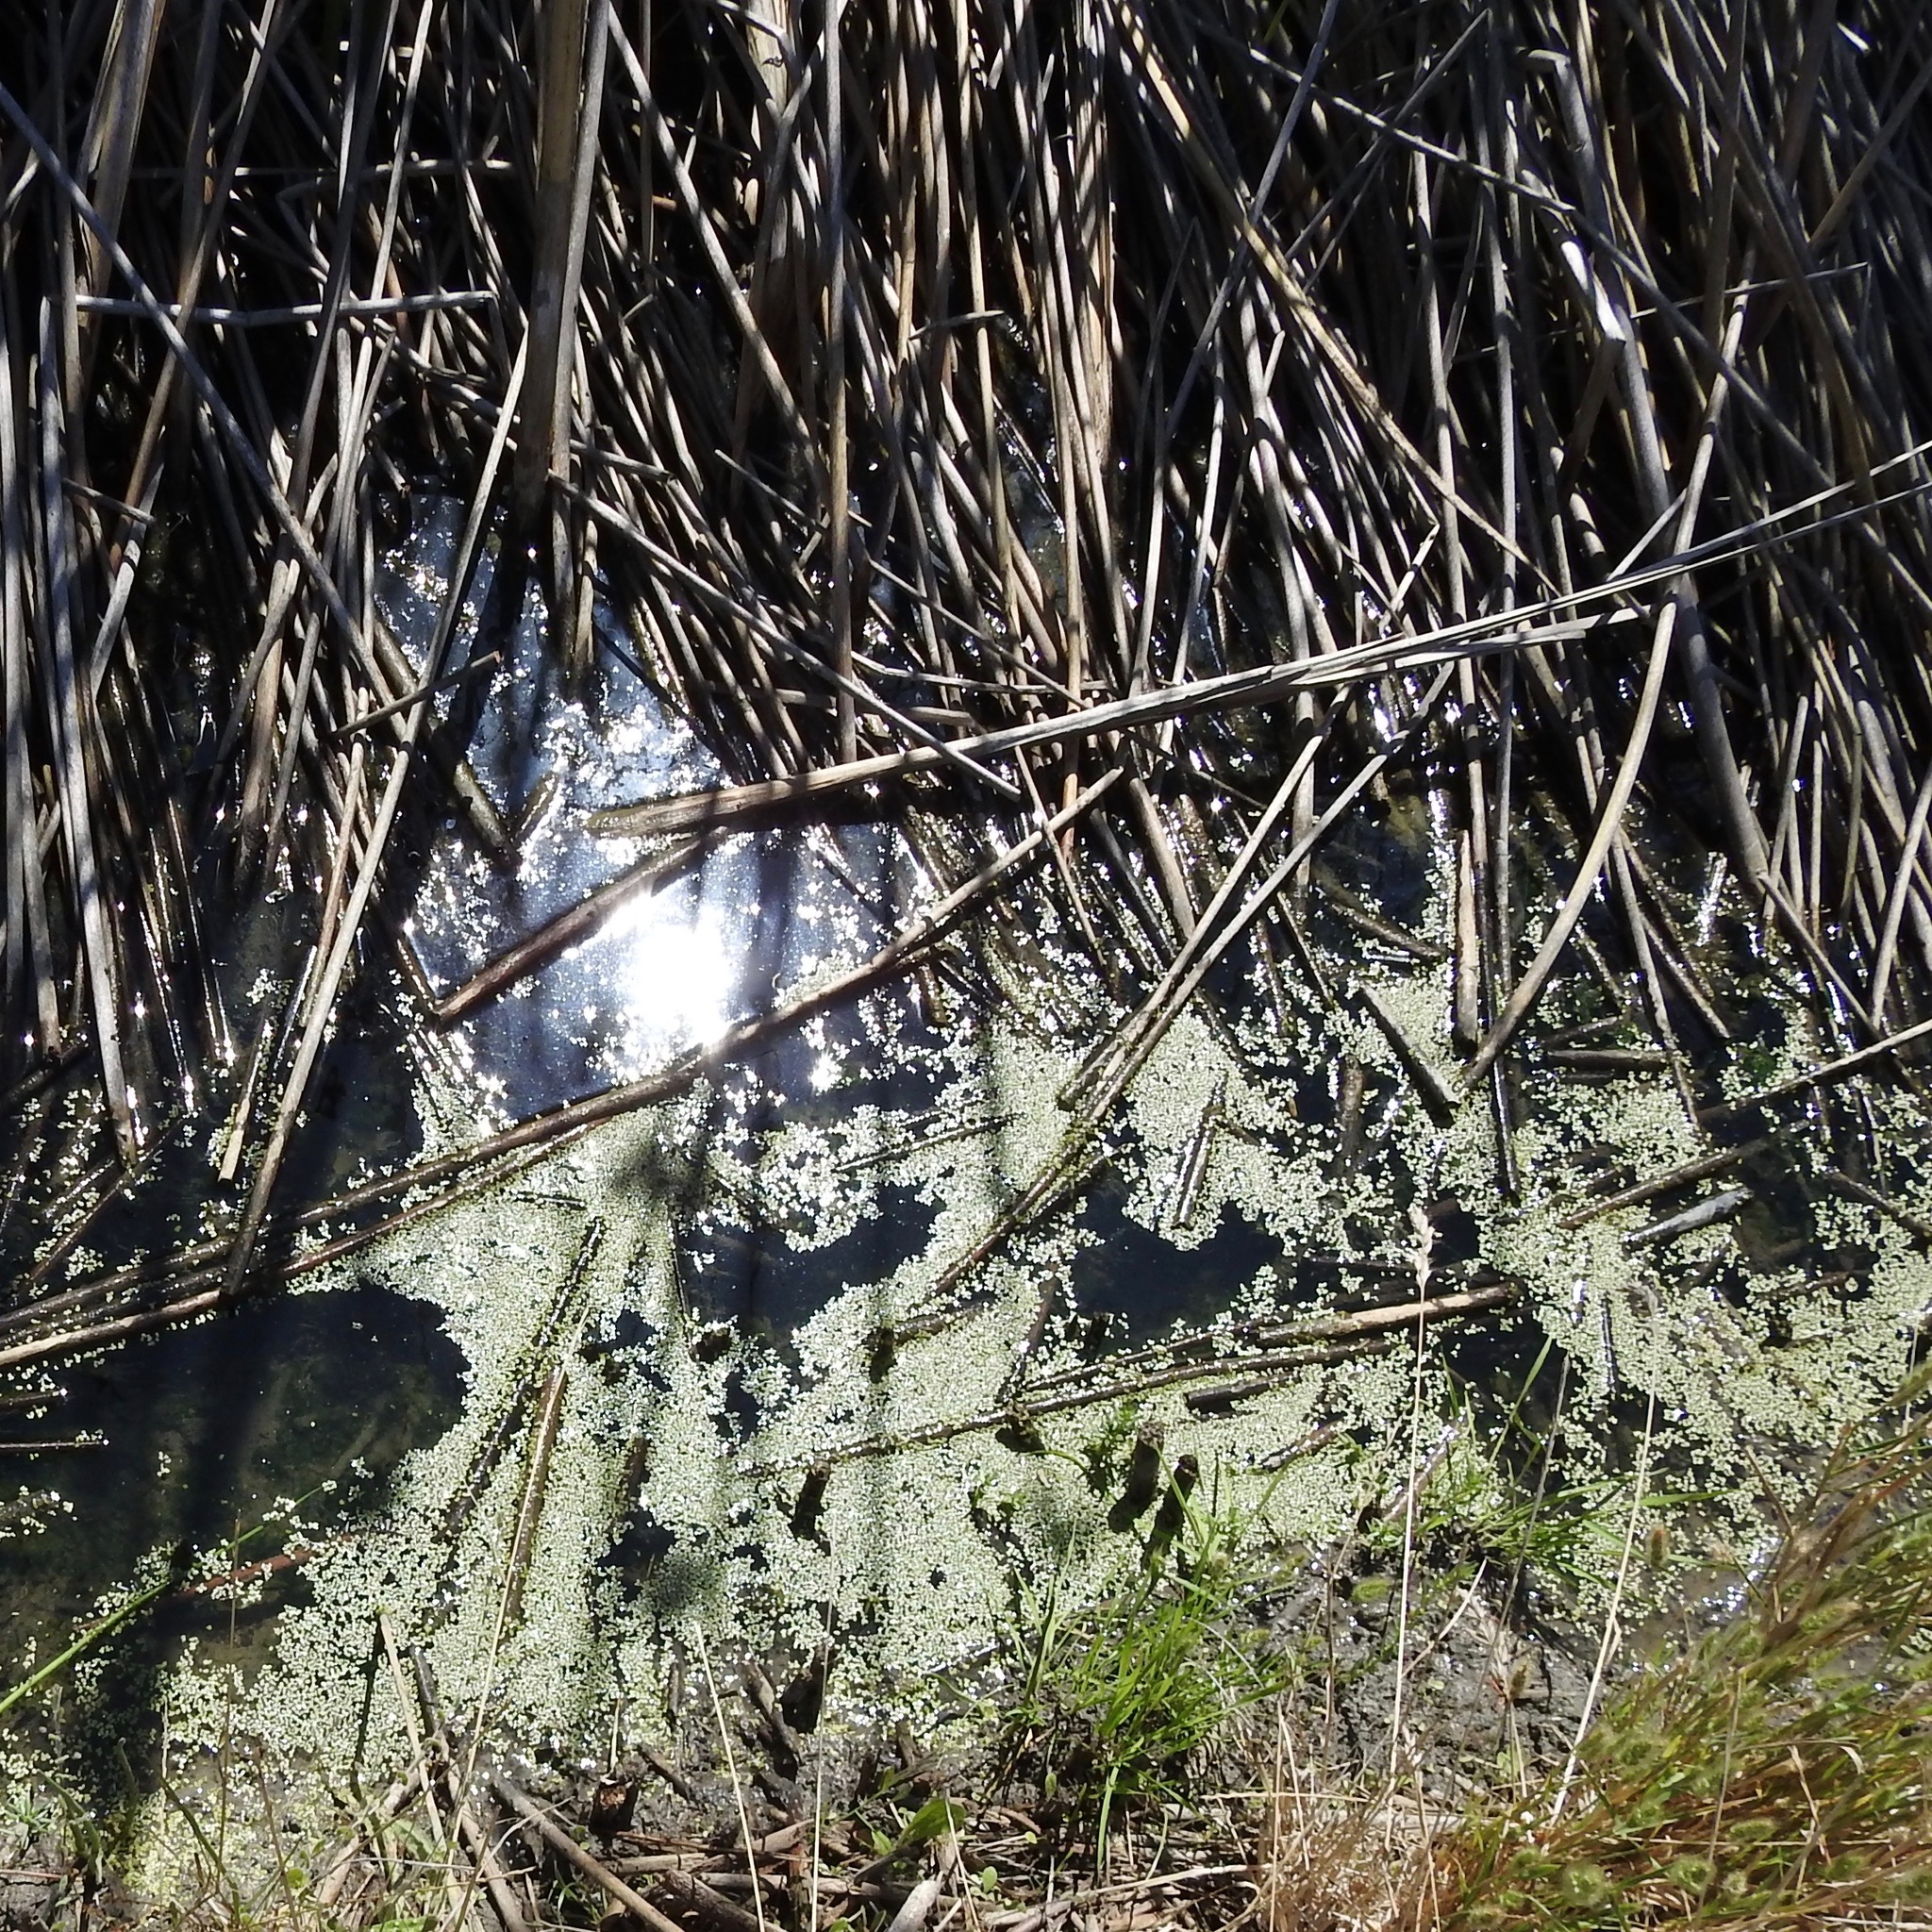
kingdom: Plantae
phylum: Tracheophyta
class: Liliopsida
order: Alismatales
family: Araceae
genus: Lemna
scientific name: Lemna minor
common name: Common duckweed
